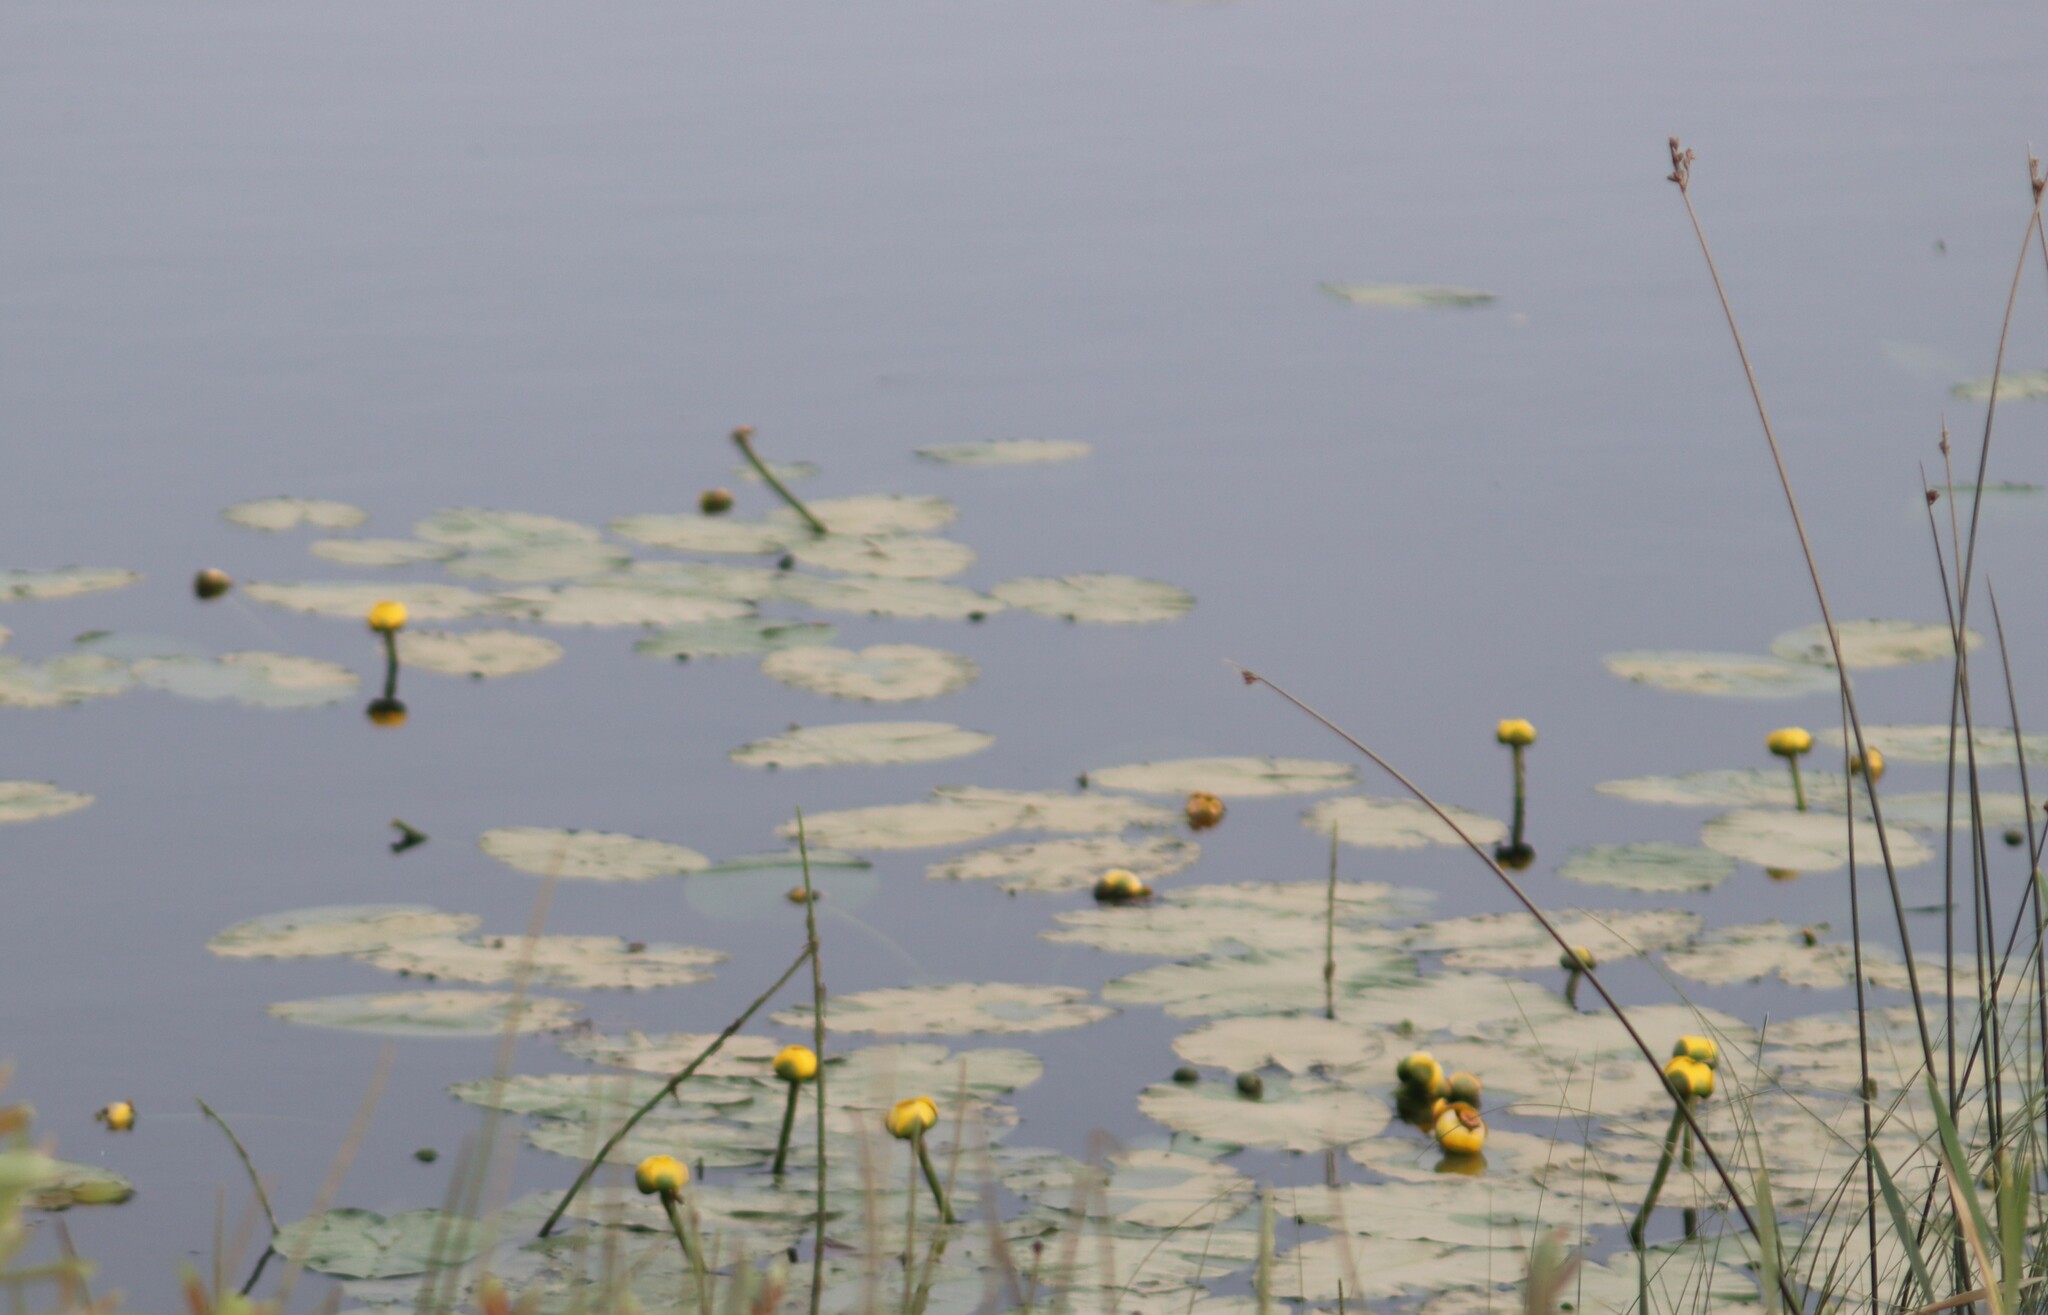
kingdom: Plantae
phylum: Tracheophyta
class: Magnoliopsida
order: Nymphaeales
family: Nymphaeaceae
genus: Nuphar
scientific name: Nuphar variegata
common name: Beaver-root
